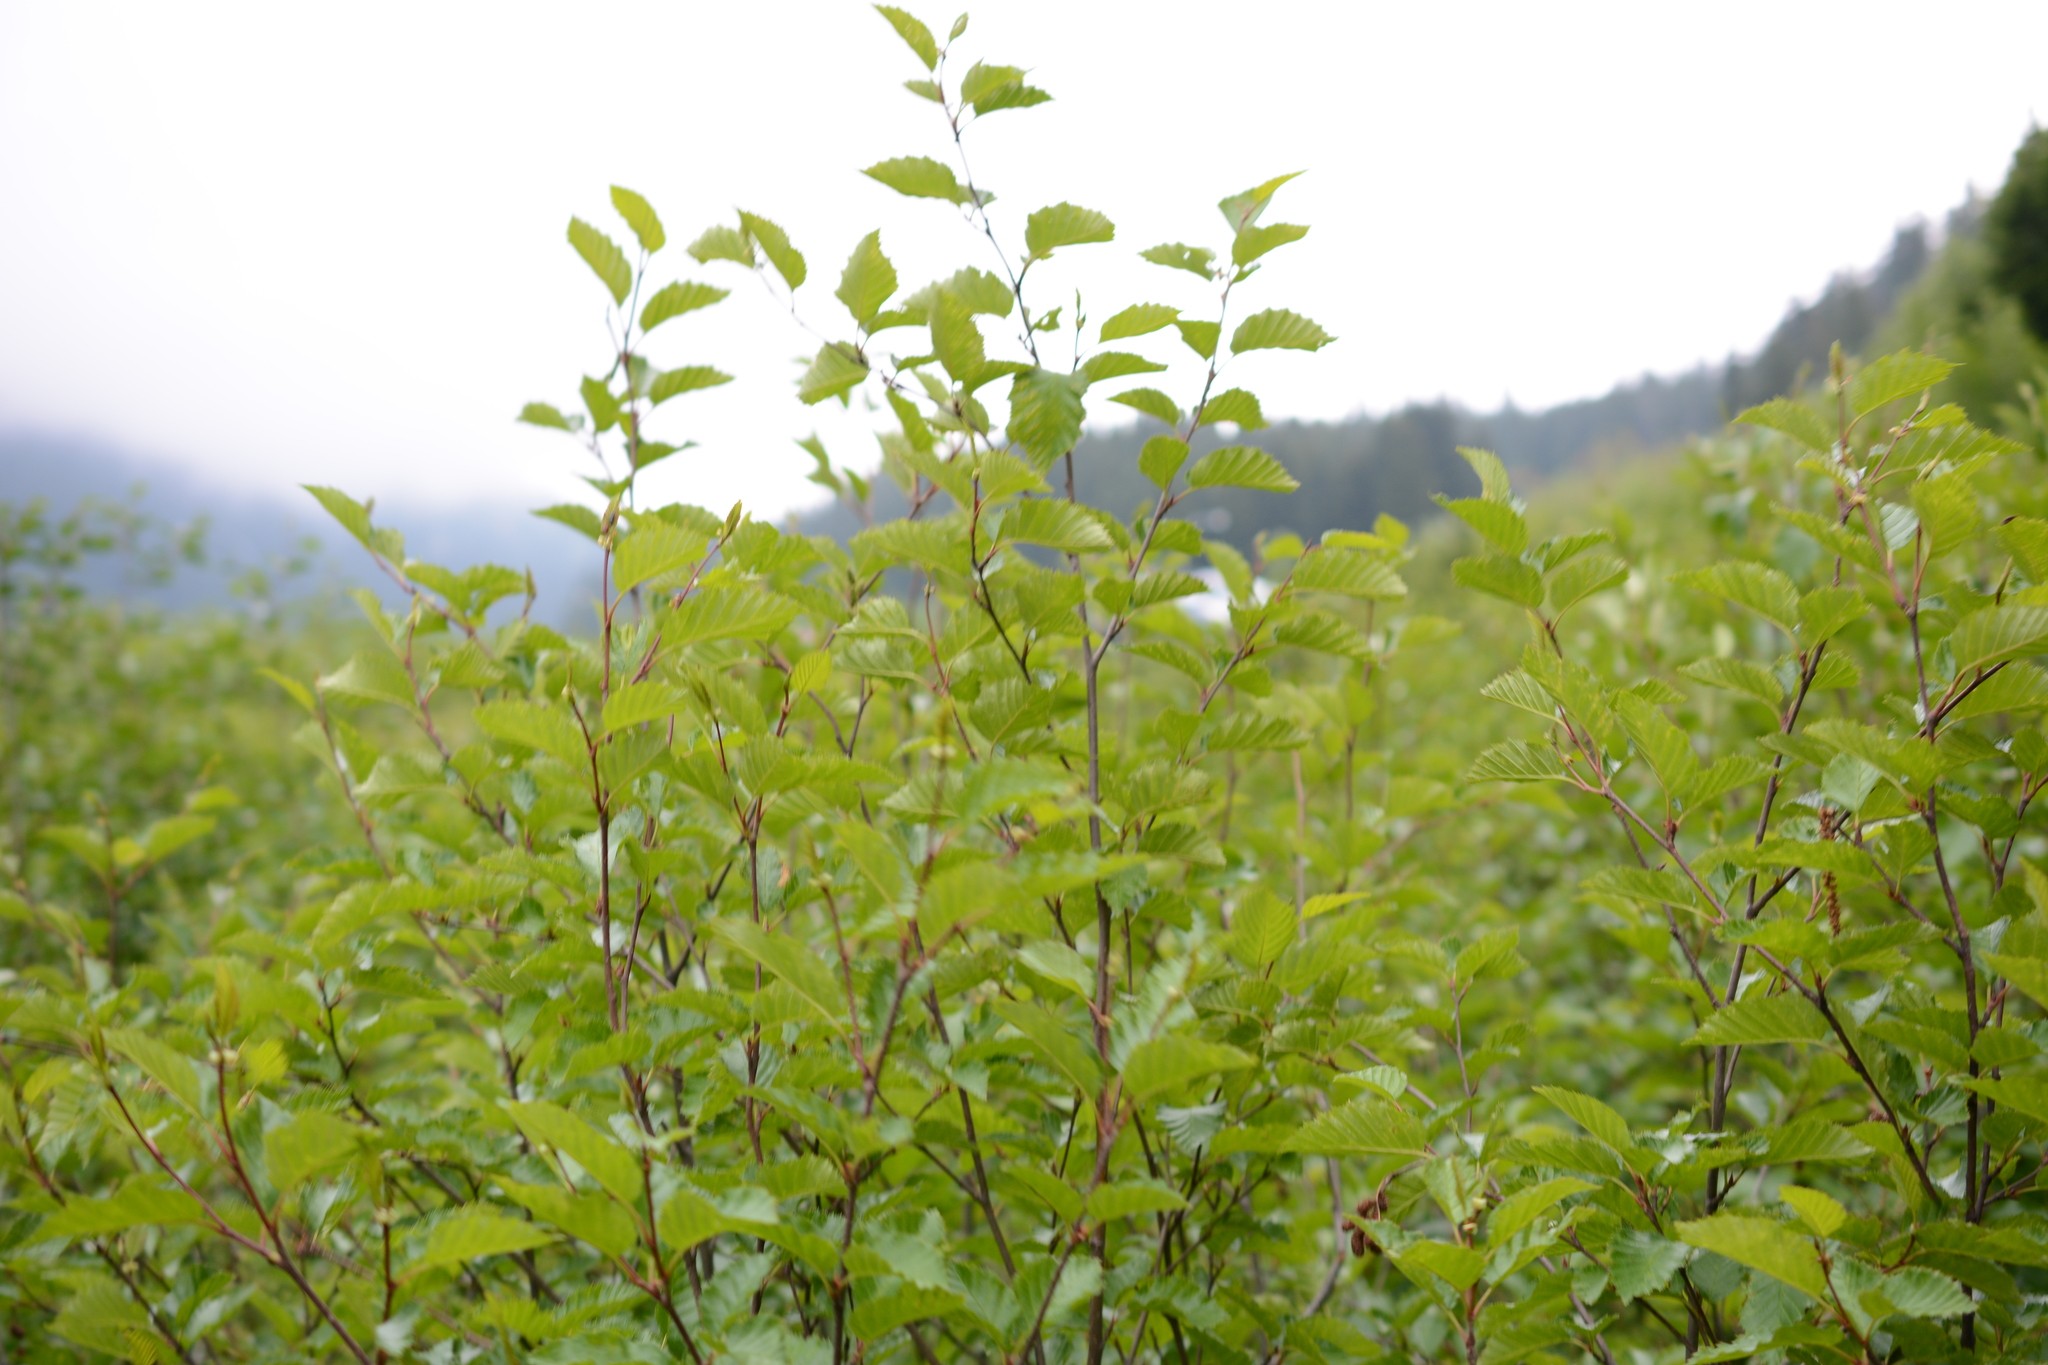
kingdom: Plantae
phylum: Tracheophyta
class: Magnoliopsida
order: Fagales
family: Betulaceae
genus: Alnus
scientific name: Alnus alnobetula
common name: Green alder
